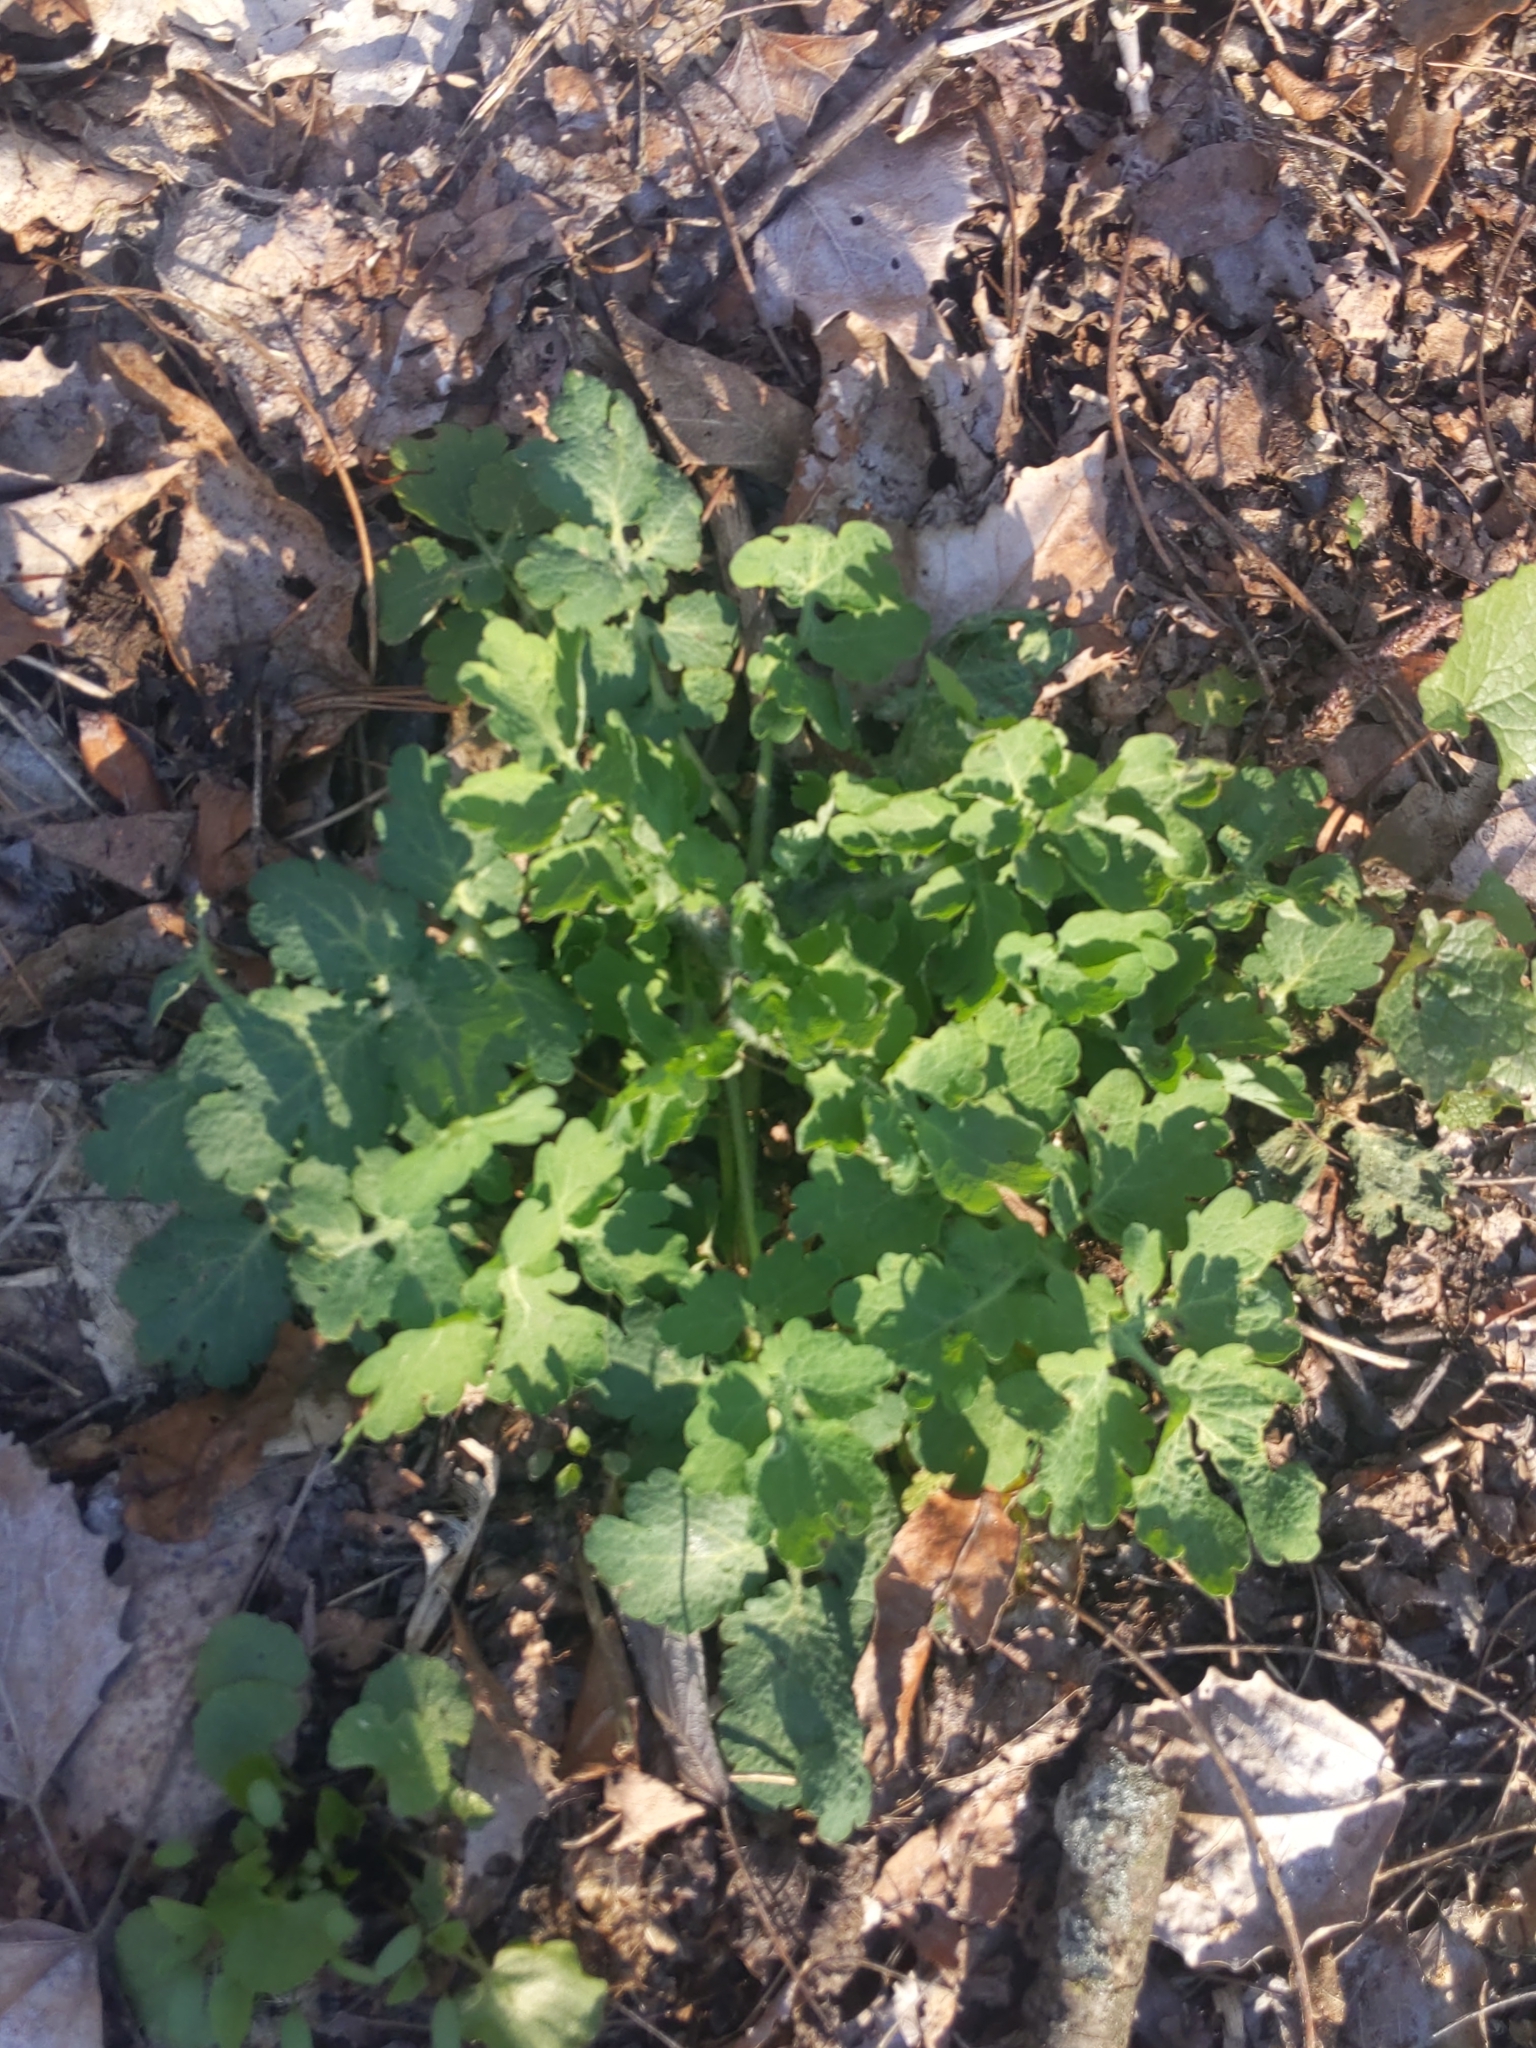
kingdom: Plantae
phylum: Tracheophyta
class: Magnoliopsida
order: Ranunculales
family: Papaveraceae
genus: Chelidonium
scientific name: Chelidonium majus
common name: Greater celandine
